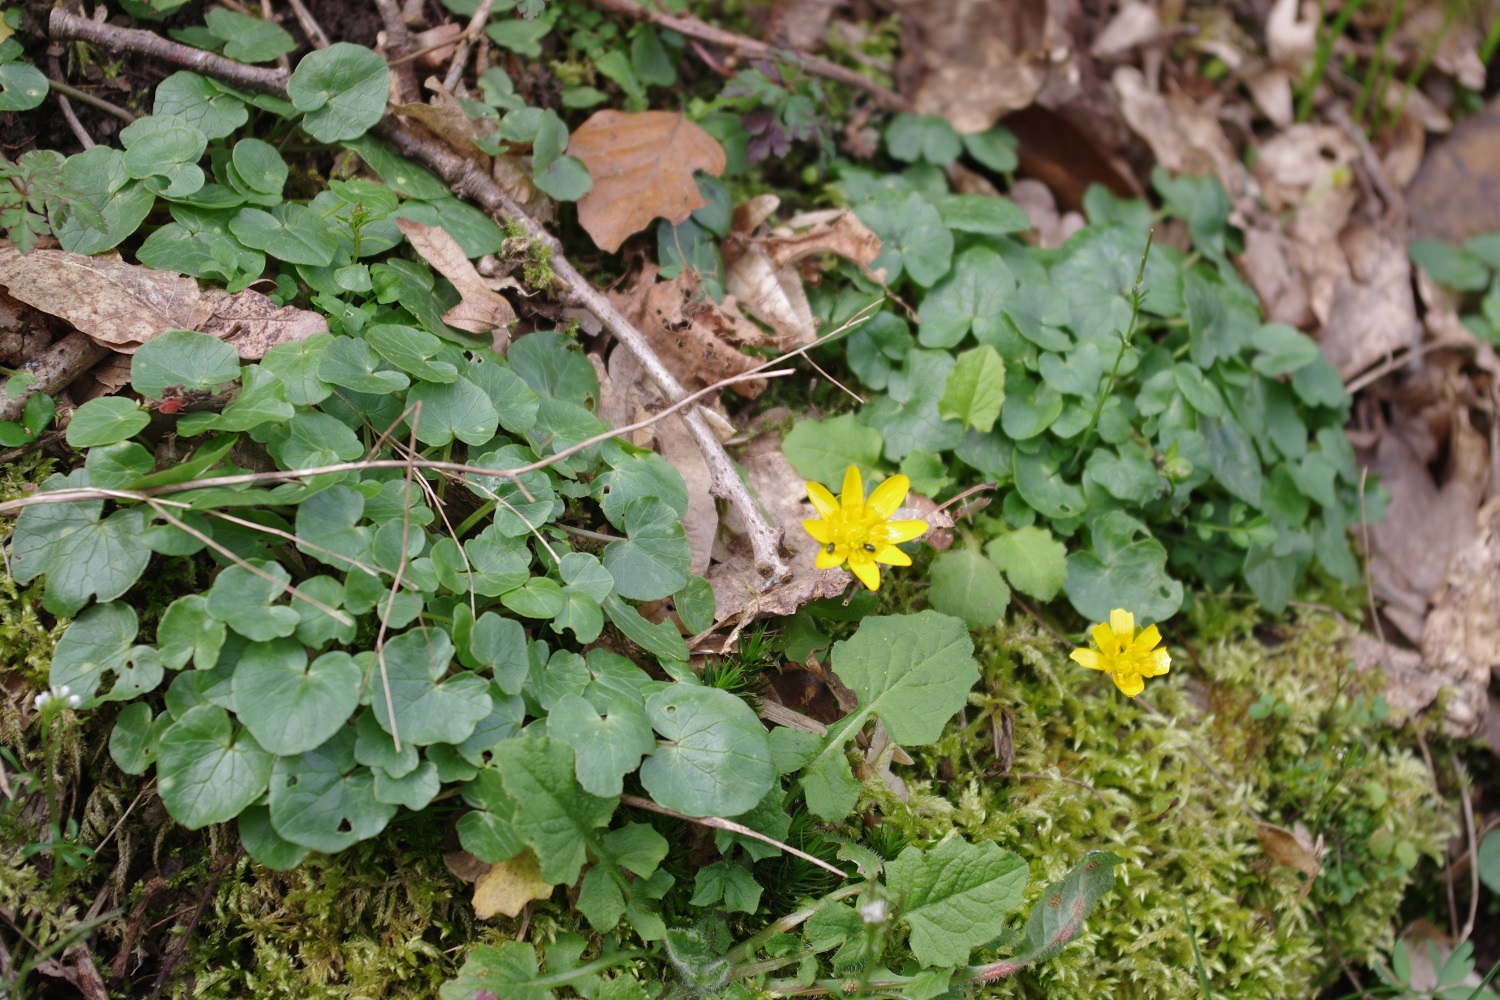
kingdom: Plantae
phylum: Tracheophyta
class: Magnoliopsida
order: Ranunculales
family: Ranunculaceae
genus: Ficaria
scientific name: Ficaria verna
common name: Lesser celandine
